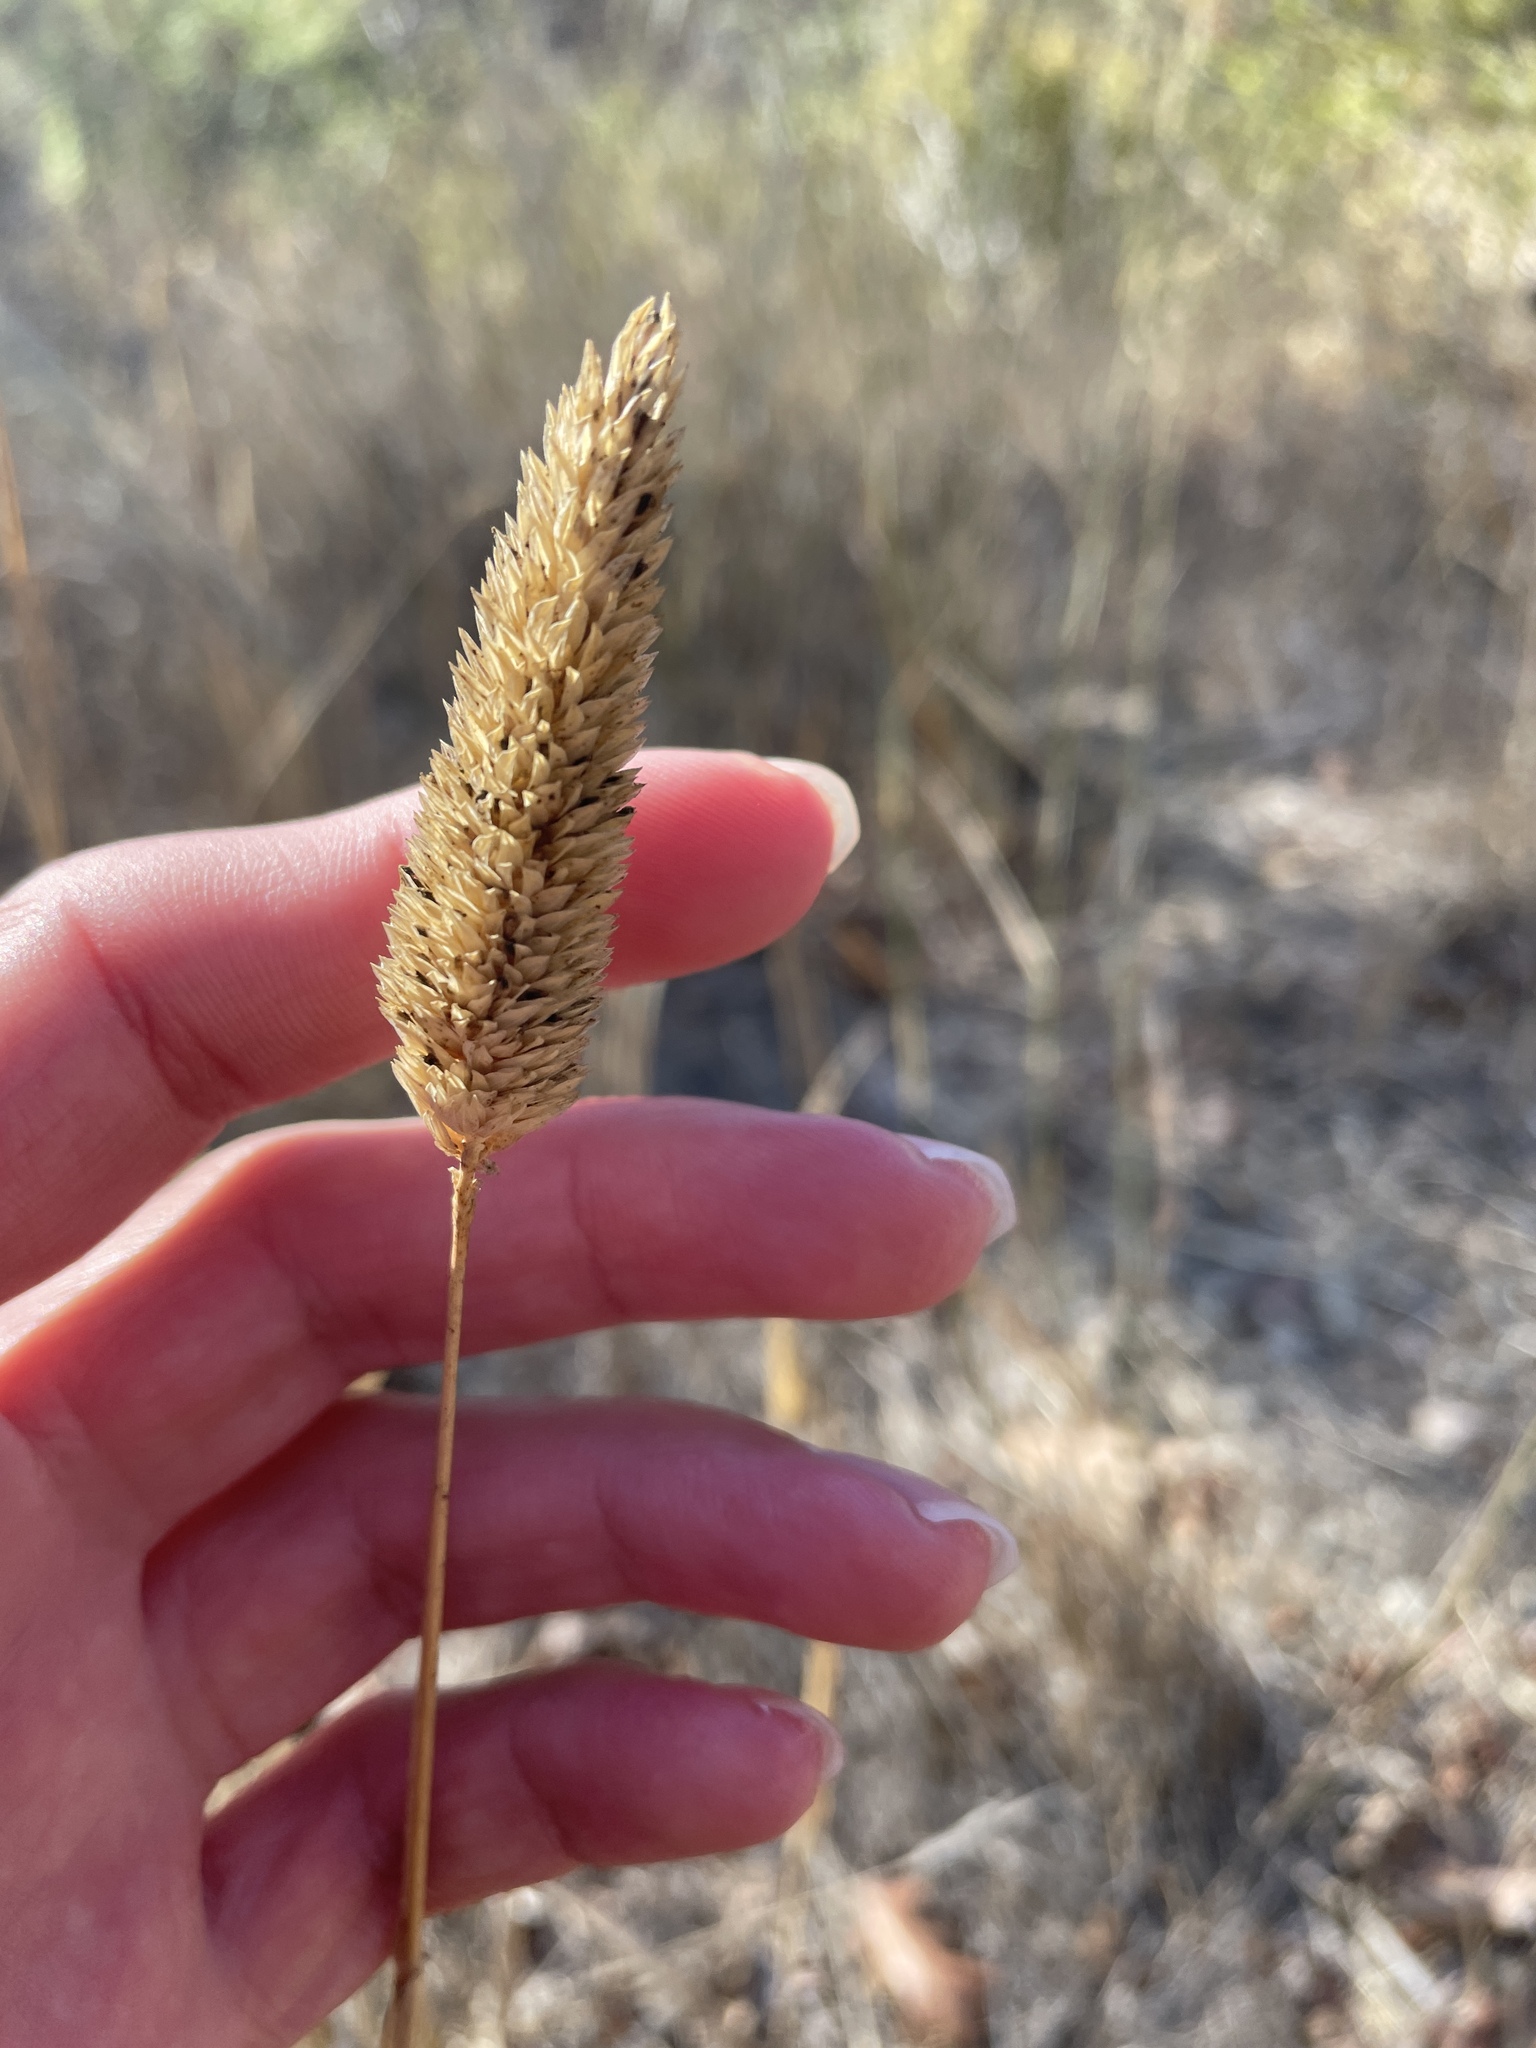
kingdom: Plantae
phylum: Tracheophyta
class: Liliopsida
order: Poales
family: Poaceae
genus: Phalaris
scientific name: Phalaris aquatica
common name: Bulbous canary-grass
